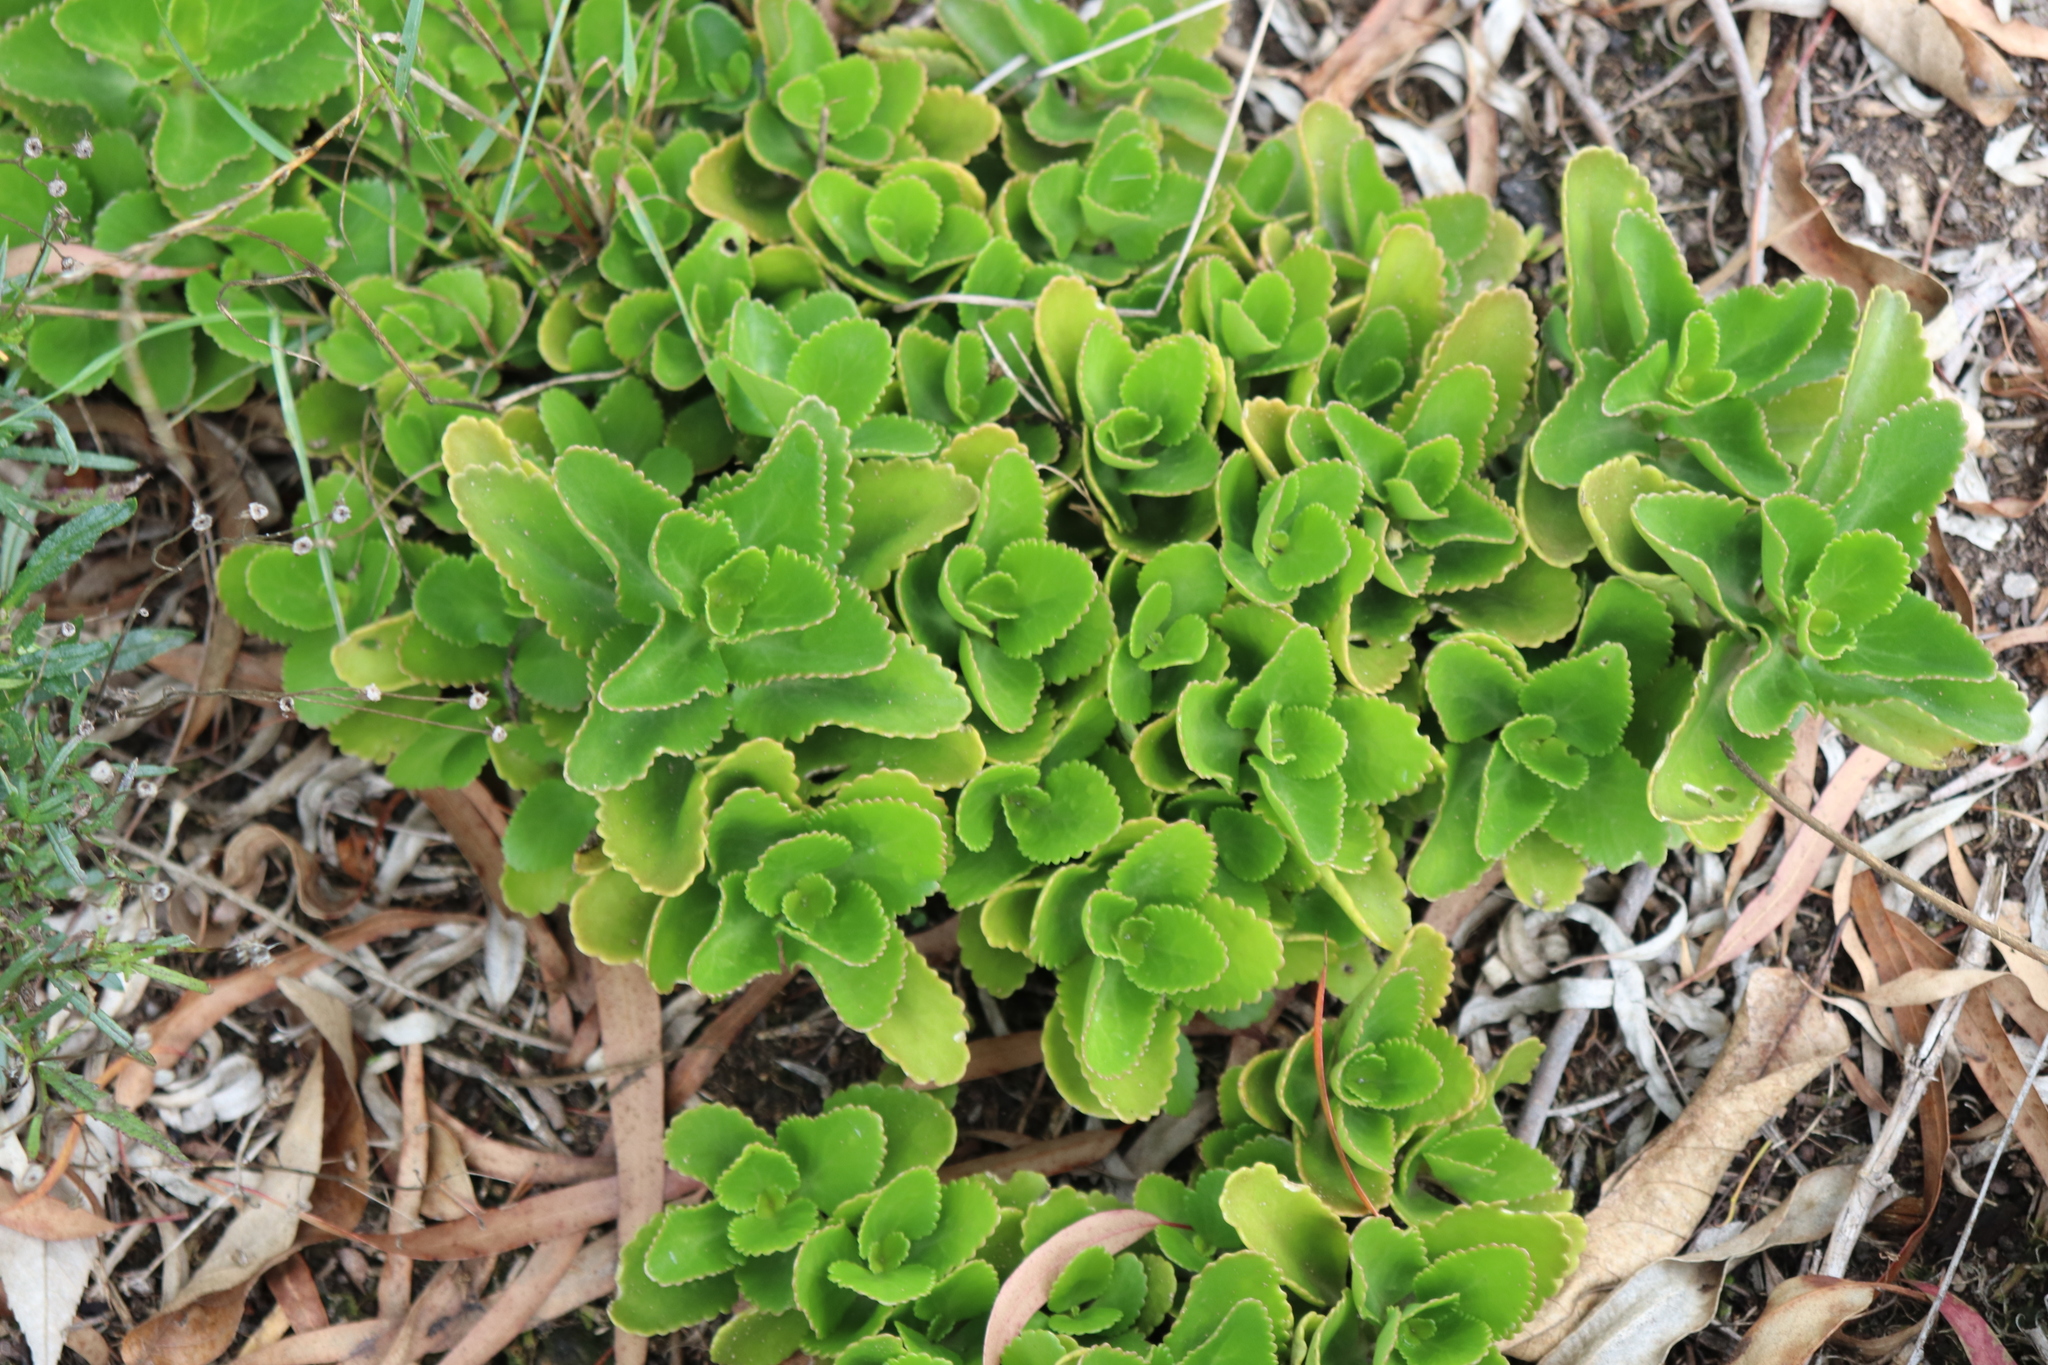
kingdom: Plantae
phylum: Tracheophyta
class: Magnoliopsida
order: Saxifragales
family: Crassulaceae
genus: Kalanchoe
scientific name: Kalanchoe densiflora
